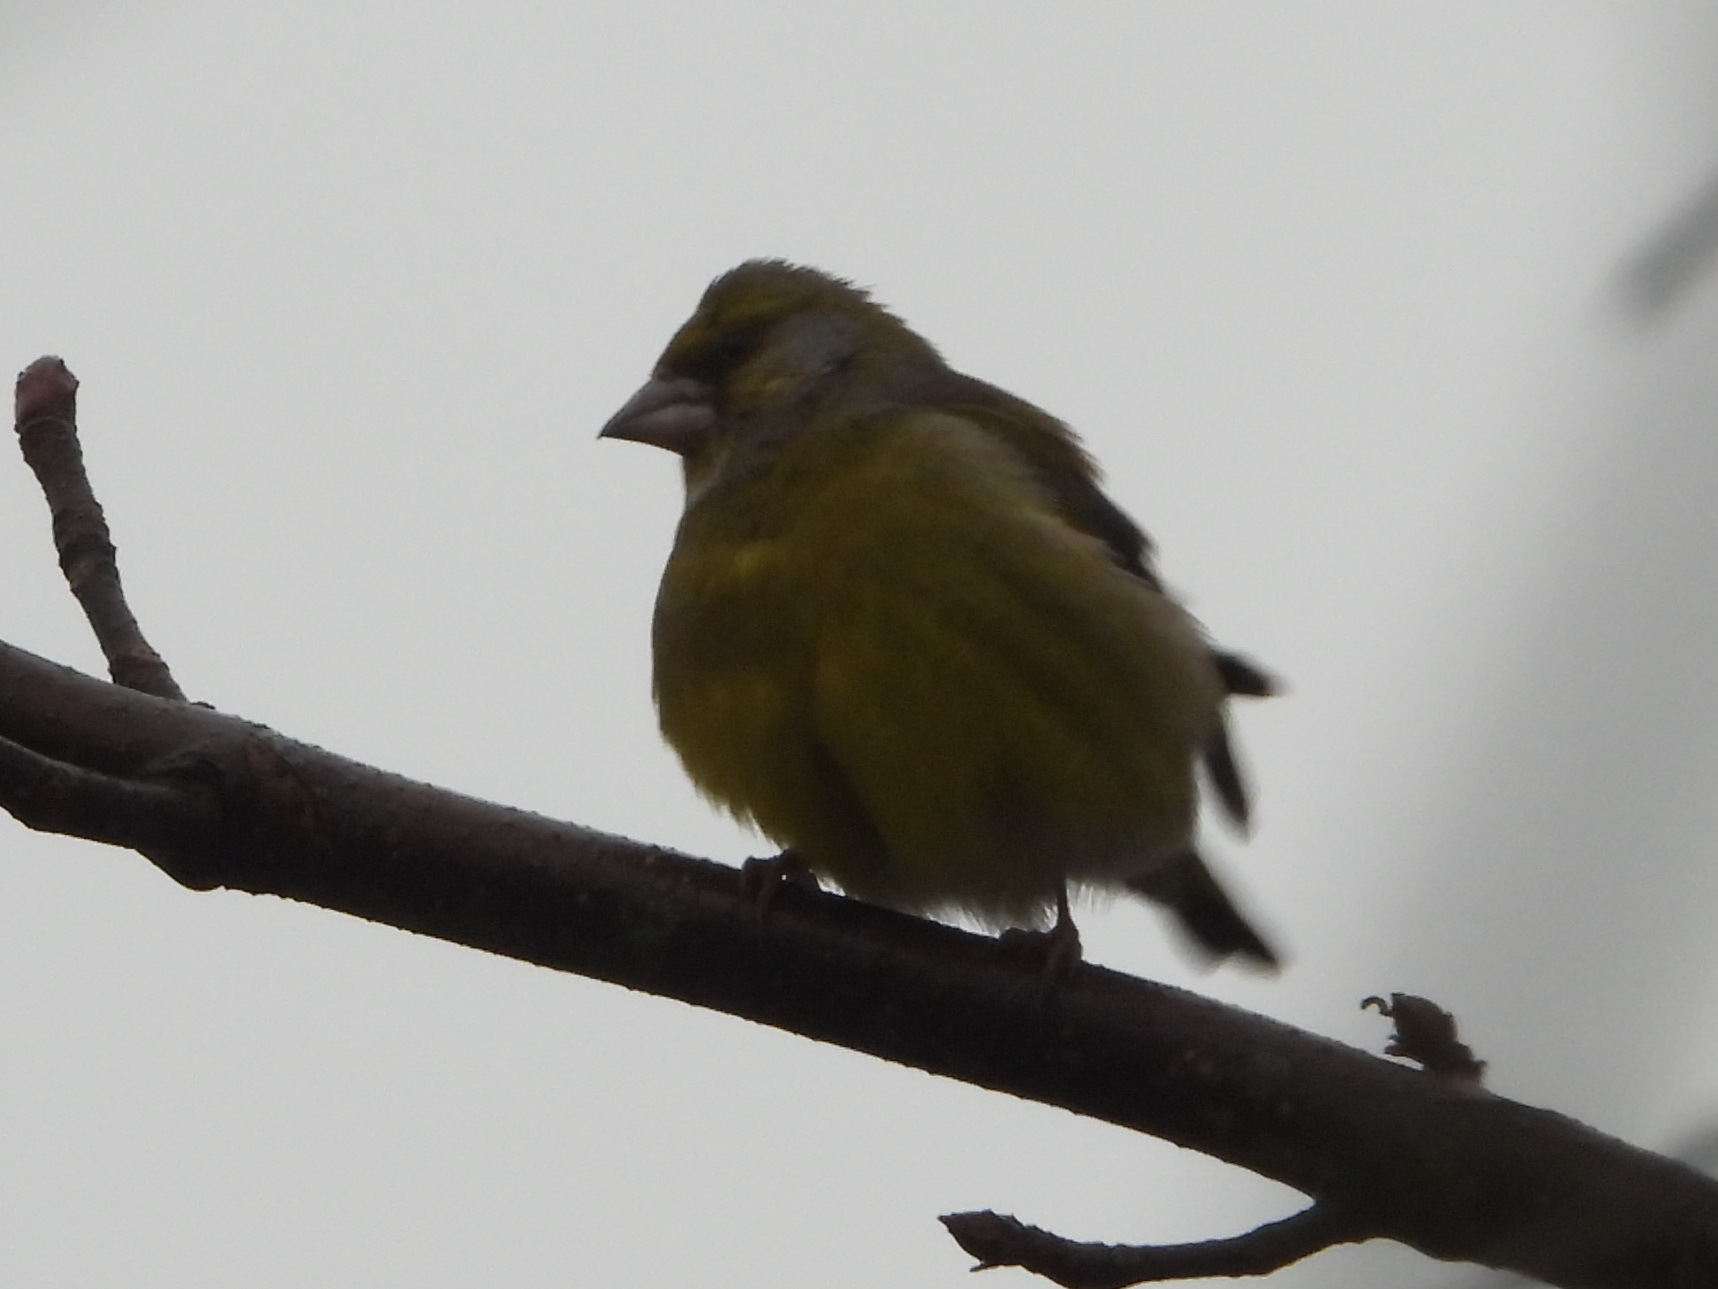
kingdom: Plantae
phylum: Tracheophyta
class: Liliopsida
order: Poales
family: Poaceae
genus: Chloris
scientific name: Chloris chloris
